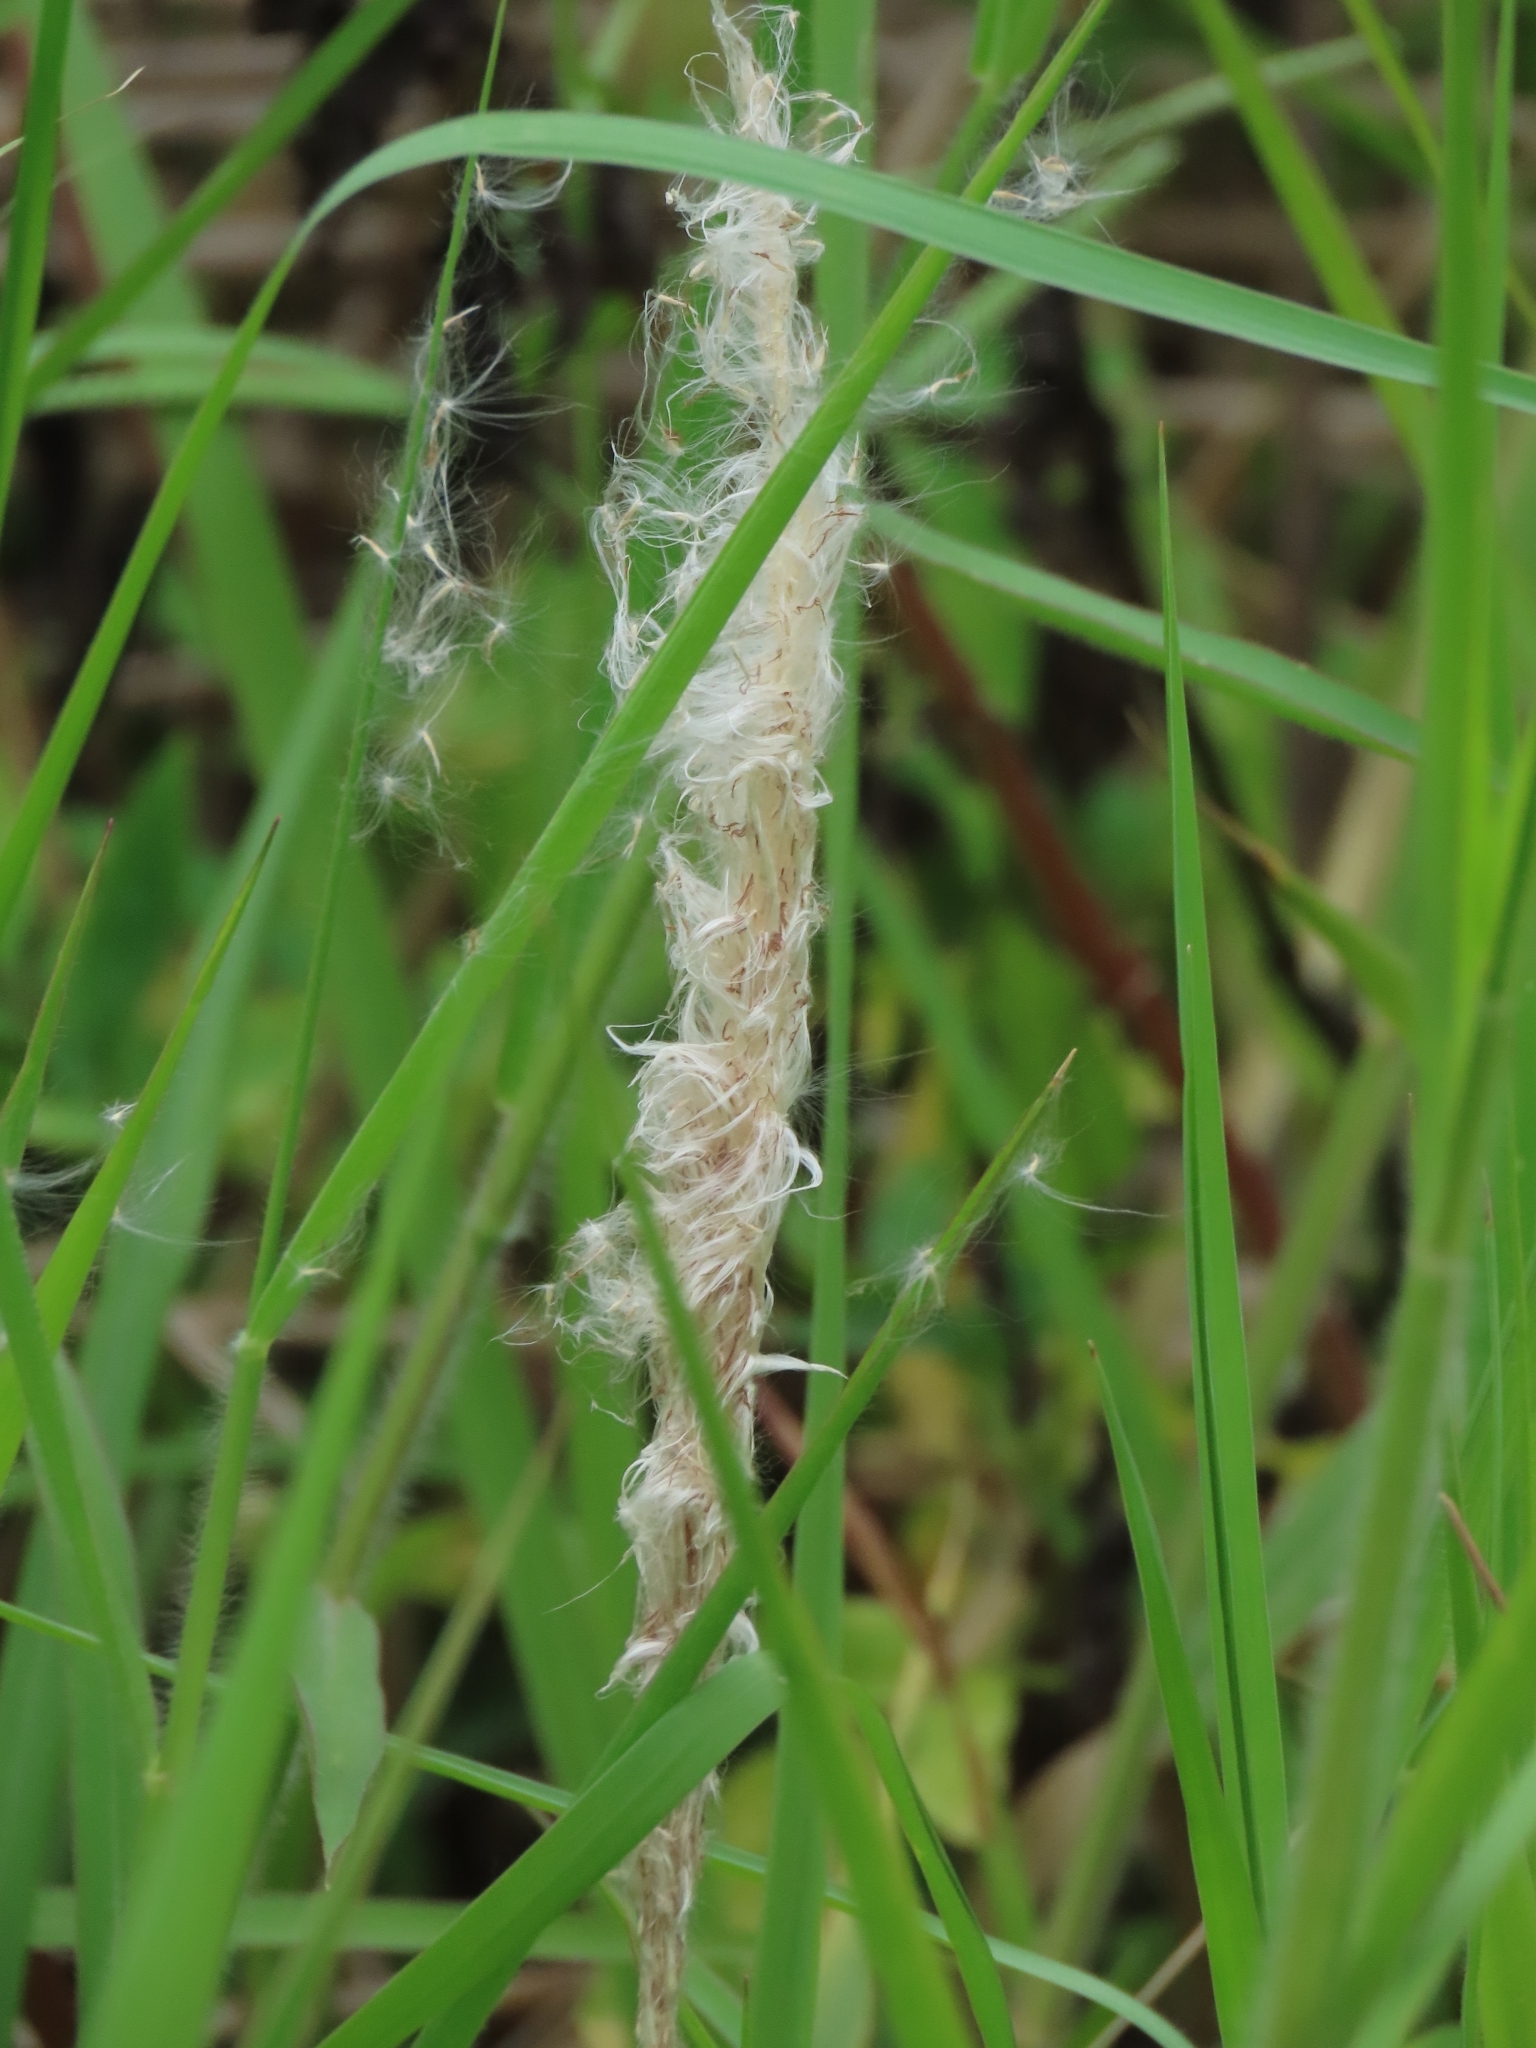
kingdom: Plantae
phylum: Tracheophyta
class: Liliopsida
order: Poales
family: Poaceae
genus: Imperata
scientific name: Imperata cylindrica
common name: Cogongrass
